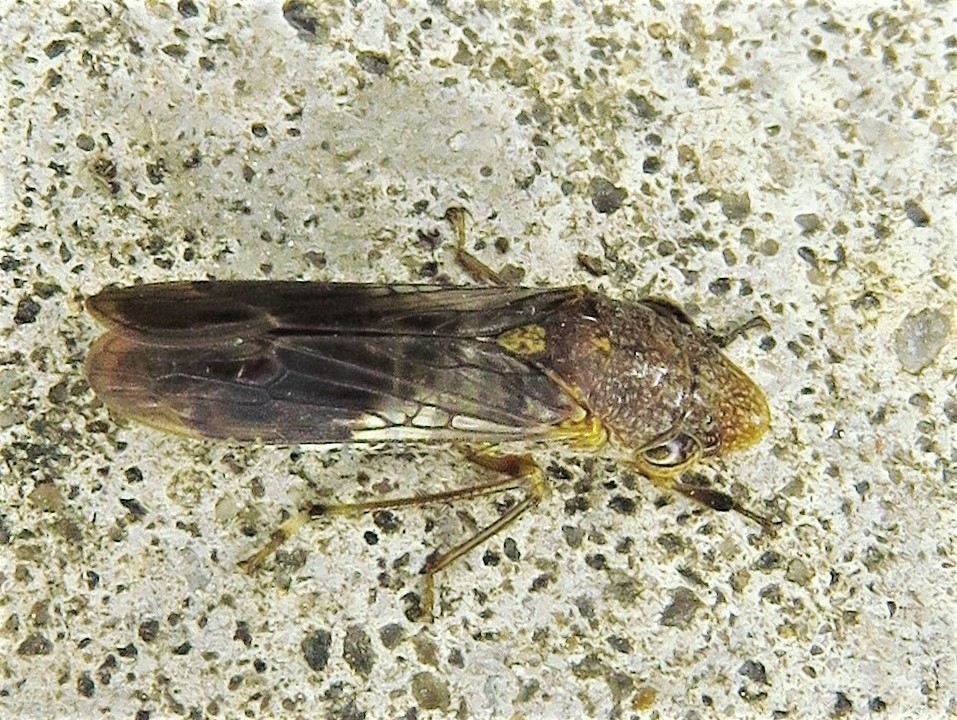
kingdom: Animalia
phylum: Arthropoda
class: Insecta
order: Hemiptera
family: Cicadellidae
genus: Homalodisca
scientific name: Homalodisca vitripennis
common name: Glassy-winged sharpshooter
